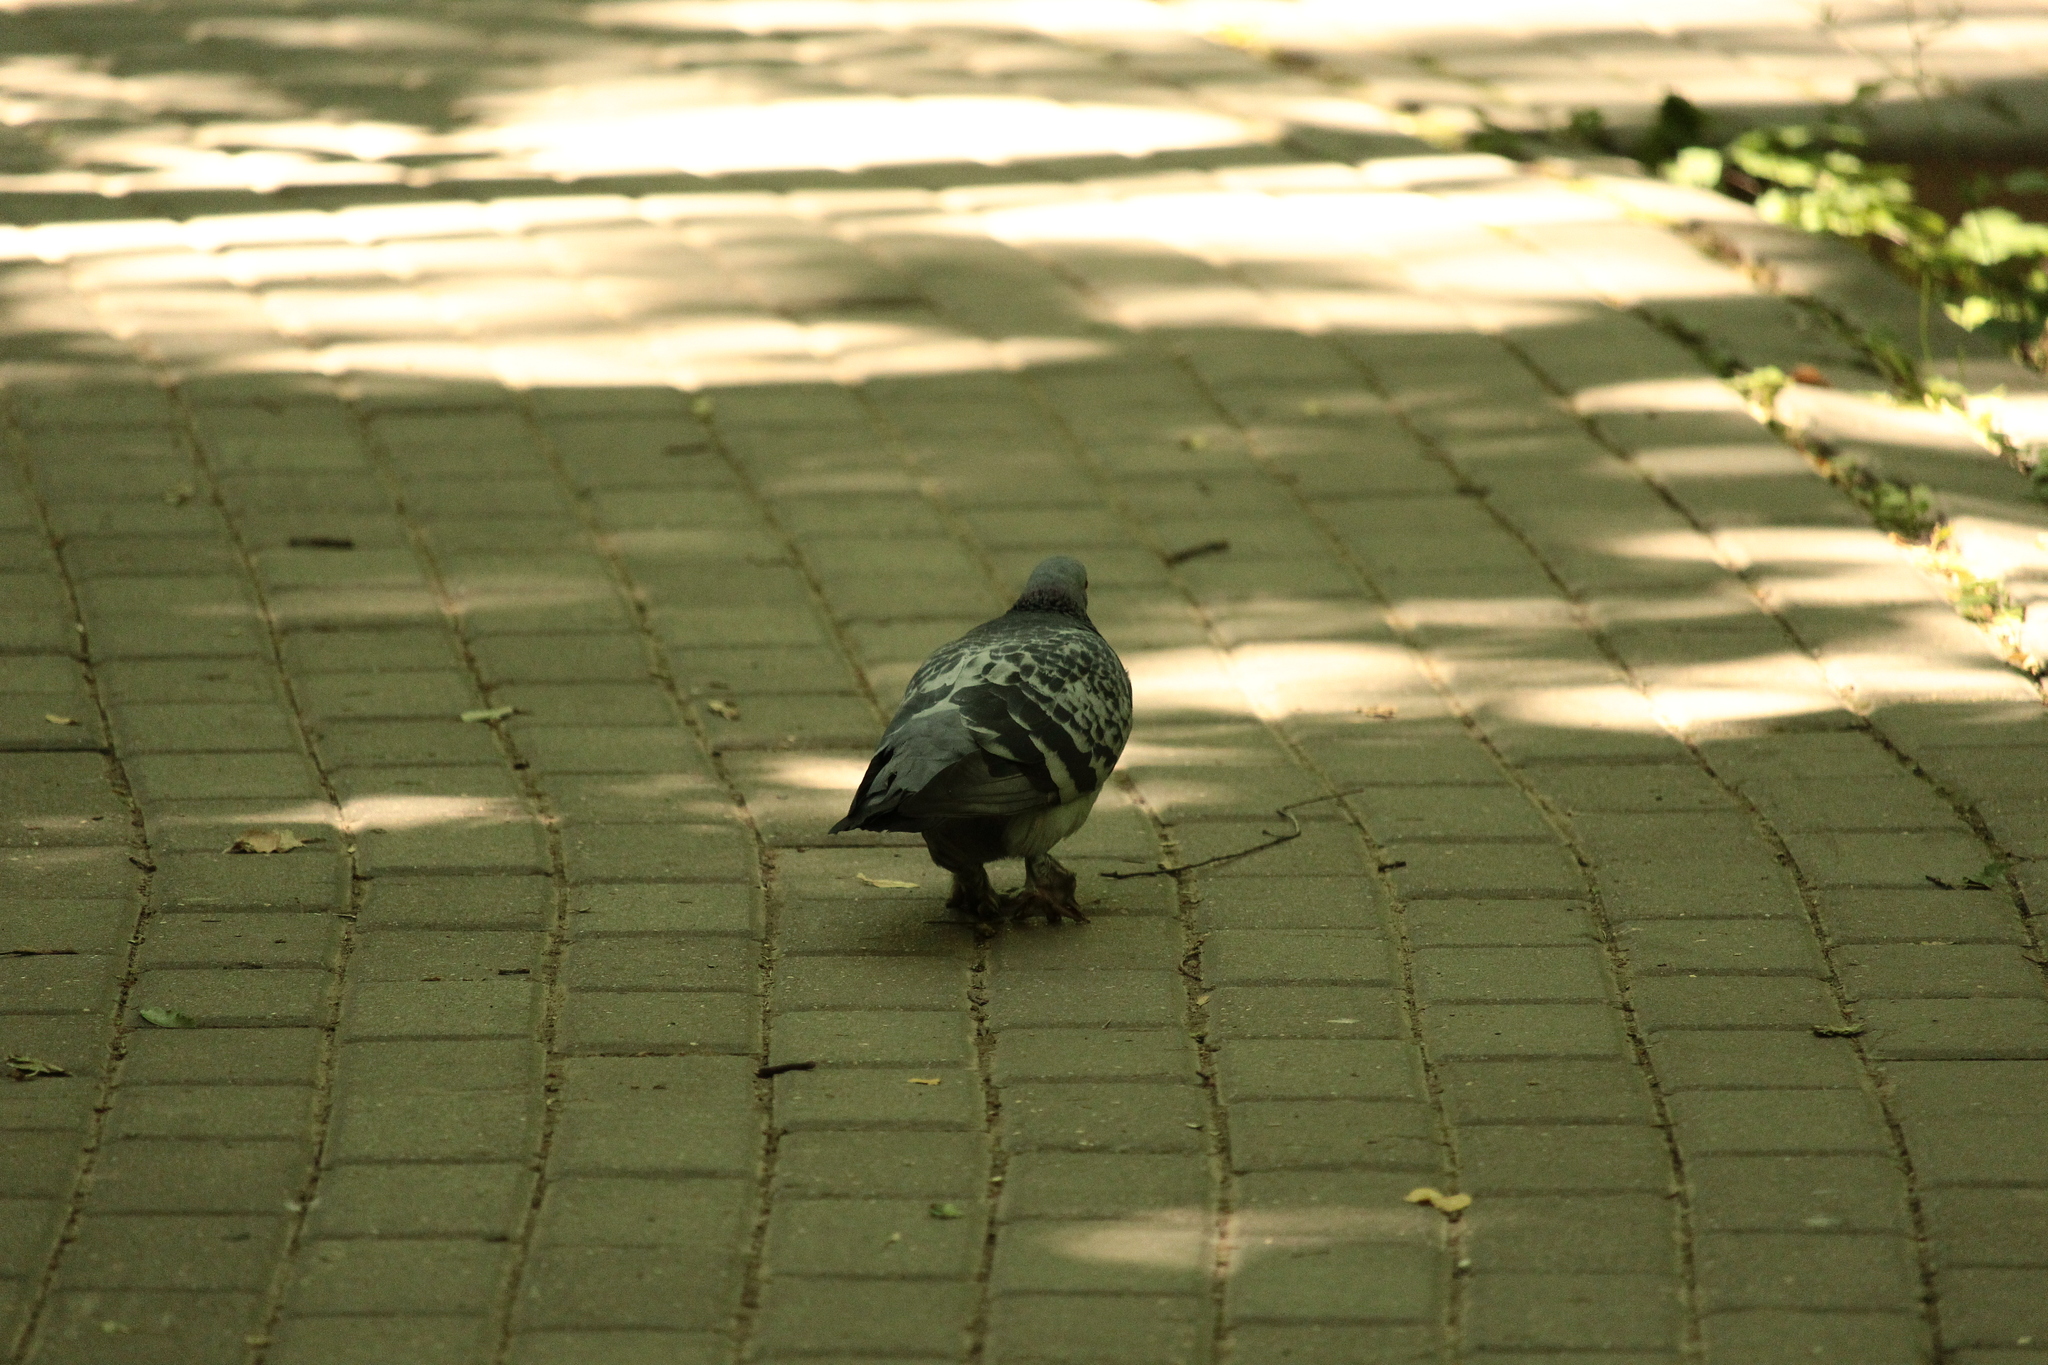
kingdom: Animalia
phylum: Chordata
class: Aves
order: Columbiformes
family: Columbidae
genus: Columba
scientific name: Columba livia
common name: Rock pigeon
